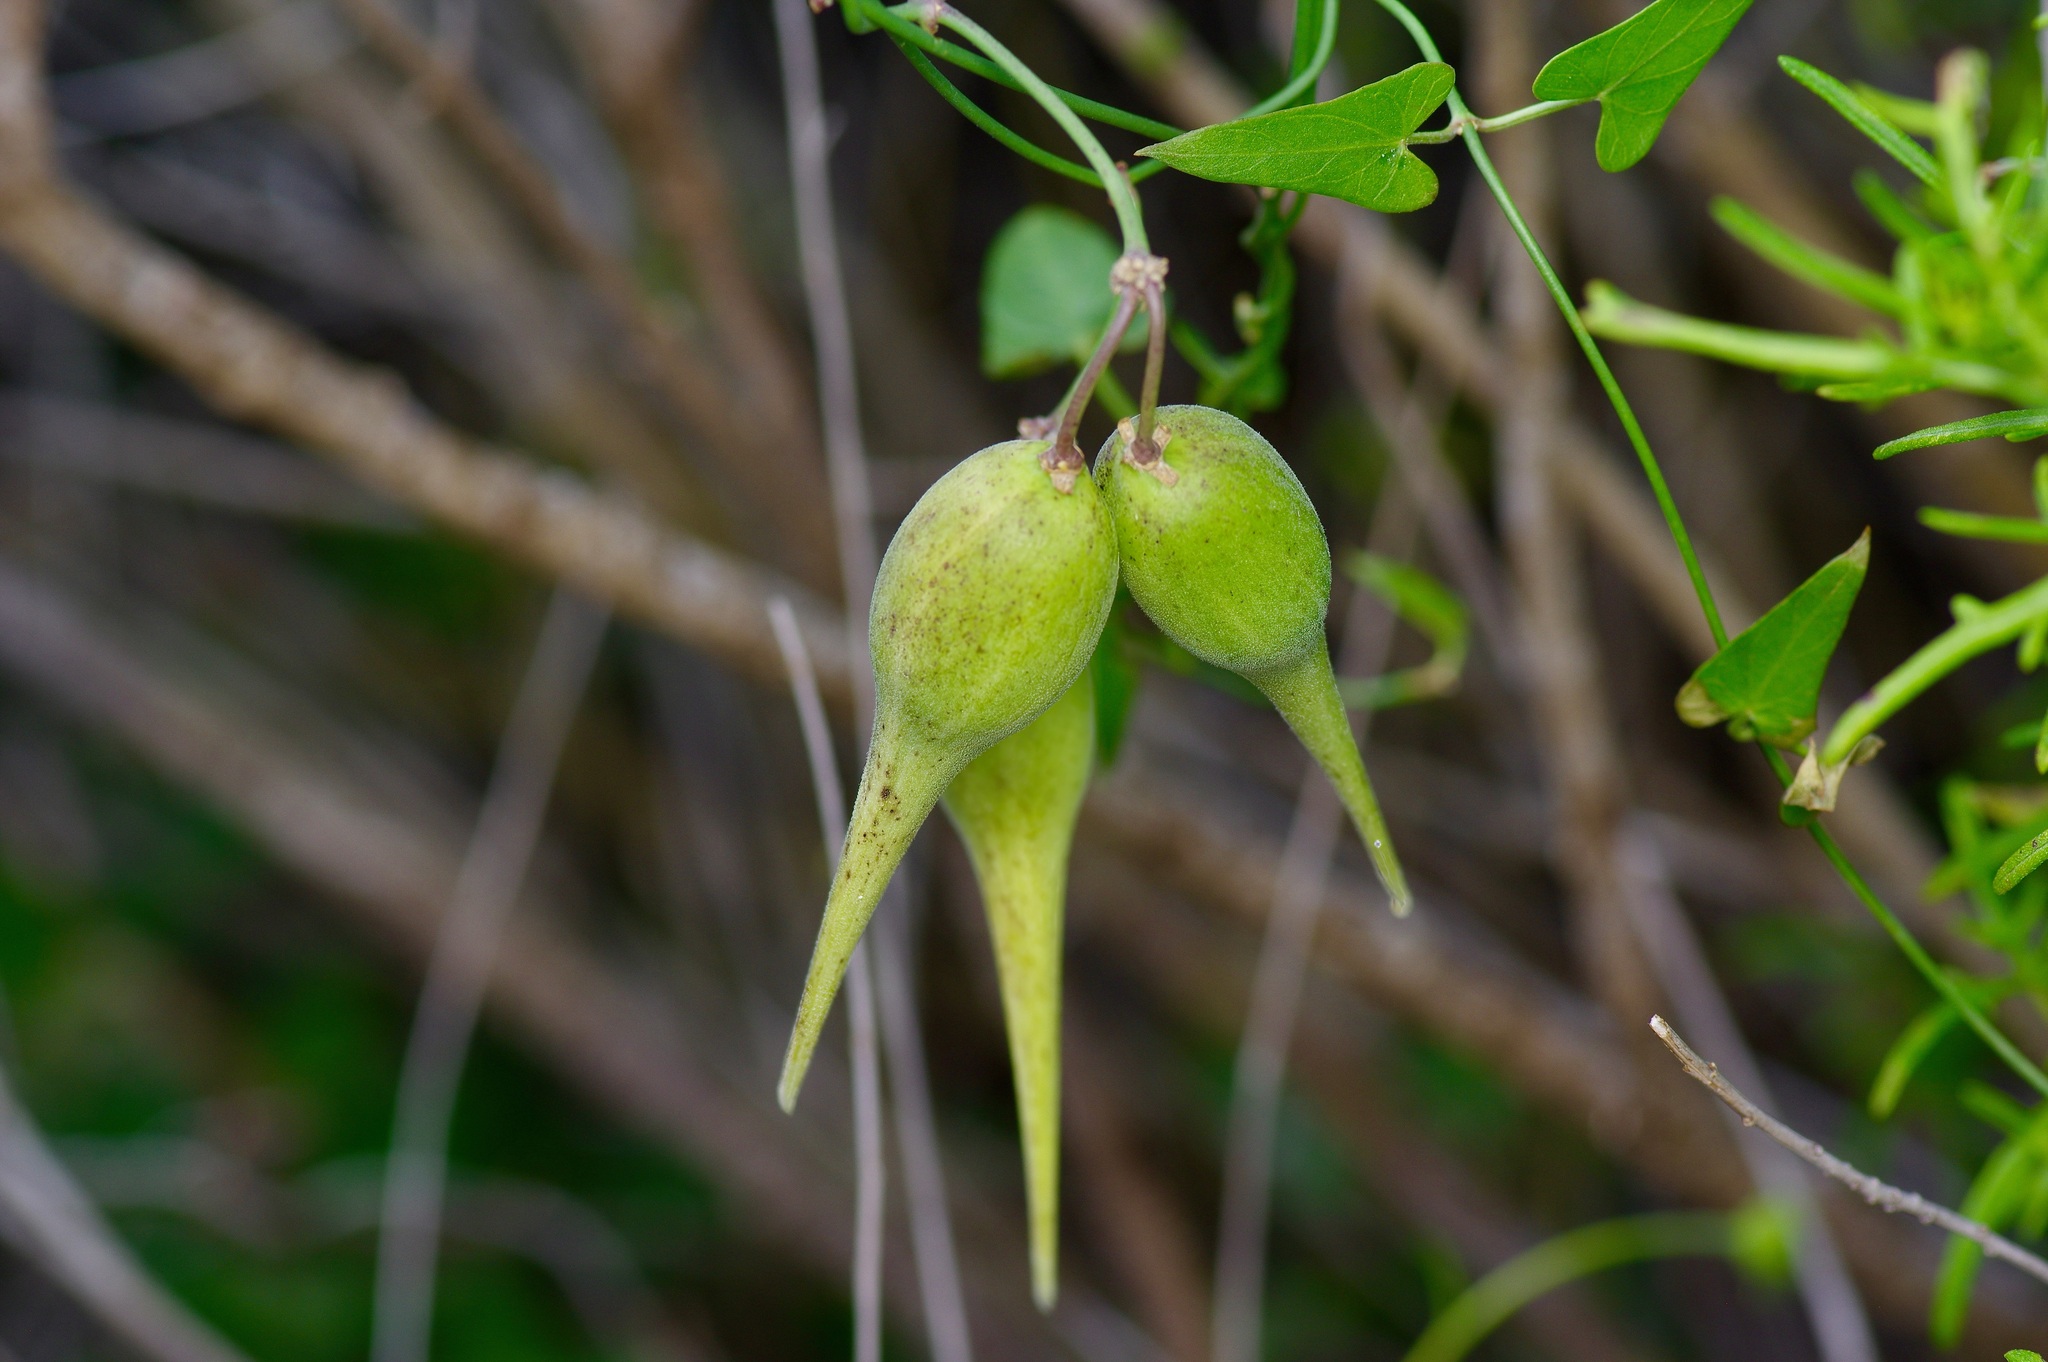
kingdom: Plantae
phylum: Tracheophyta
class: Magnoliopsida
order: Gentianales
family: Apocynaceae
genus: Funastrum
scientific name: Funastrum cynanchoides
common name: Climbing-milkweed
